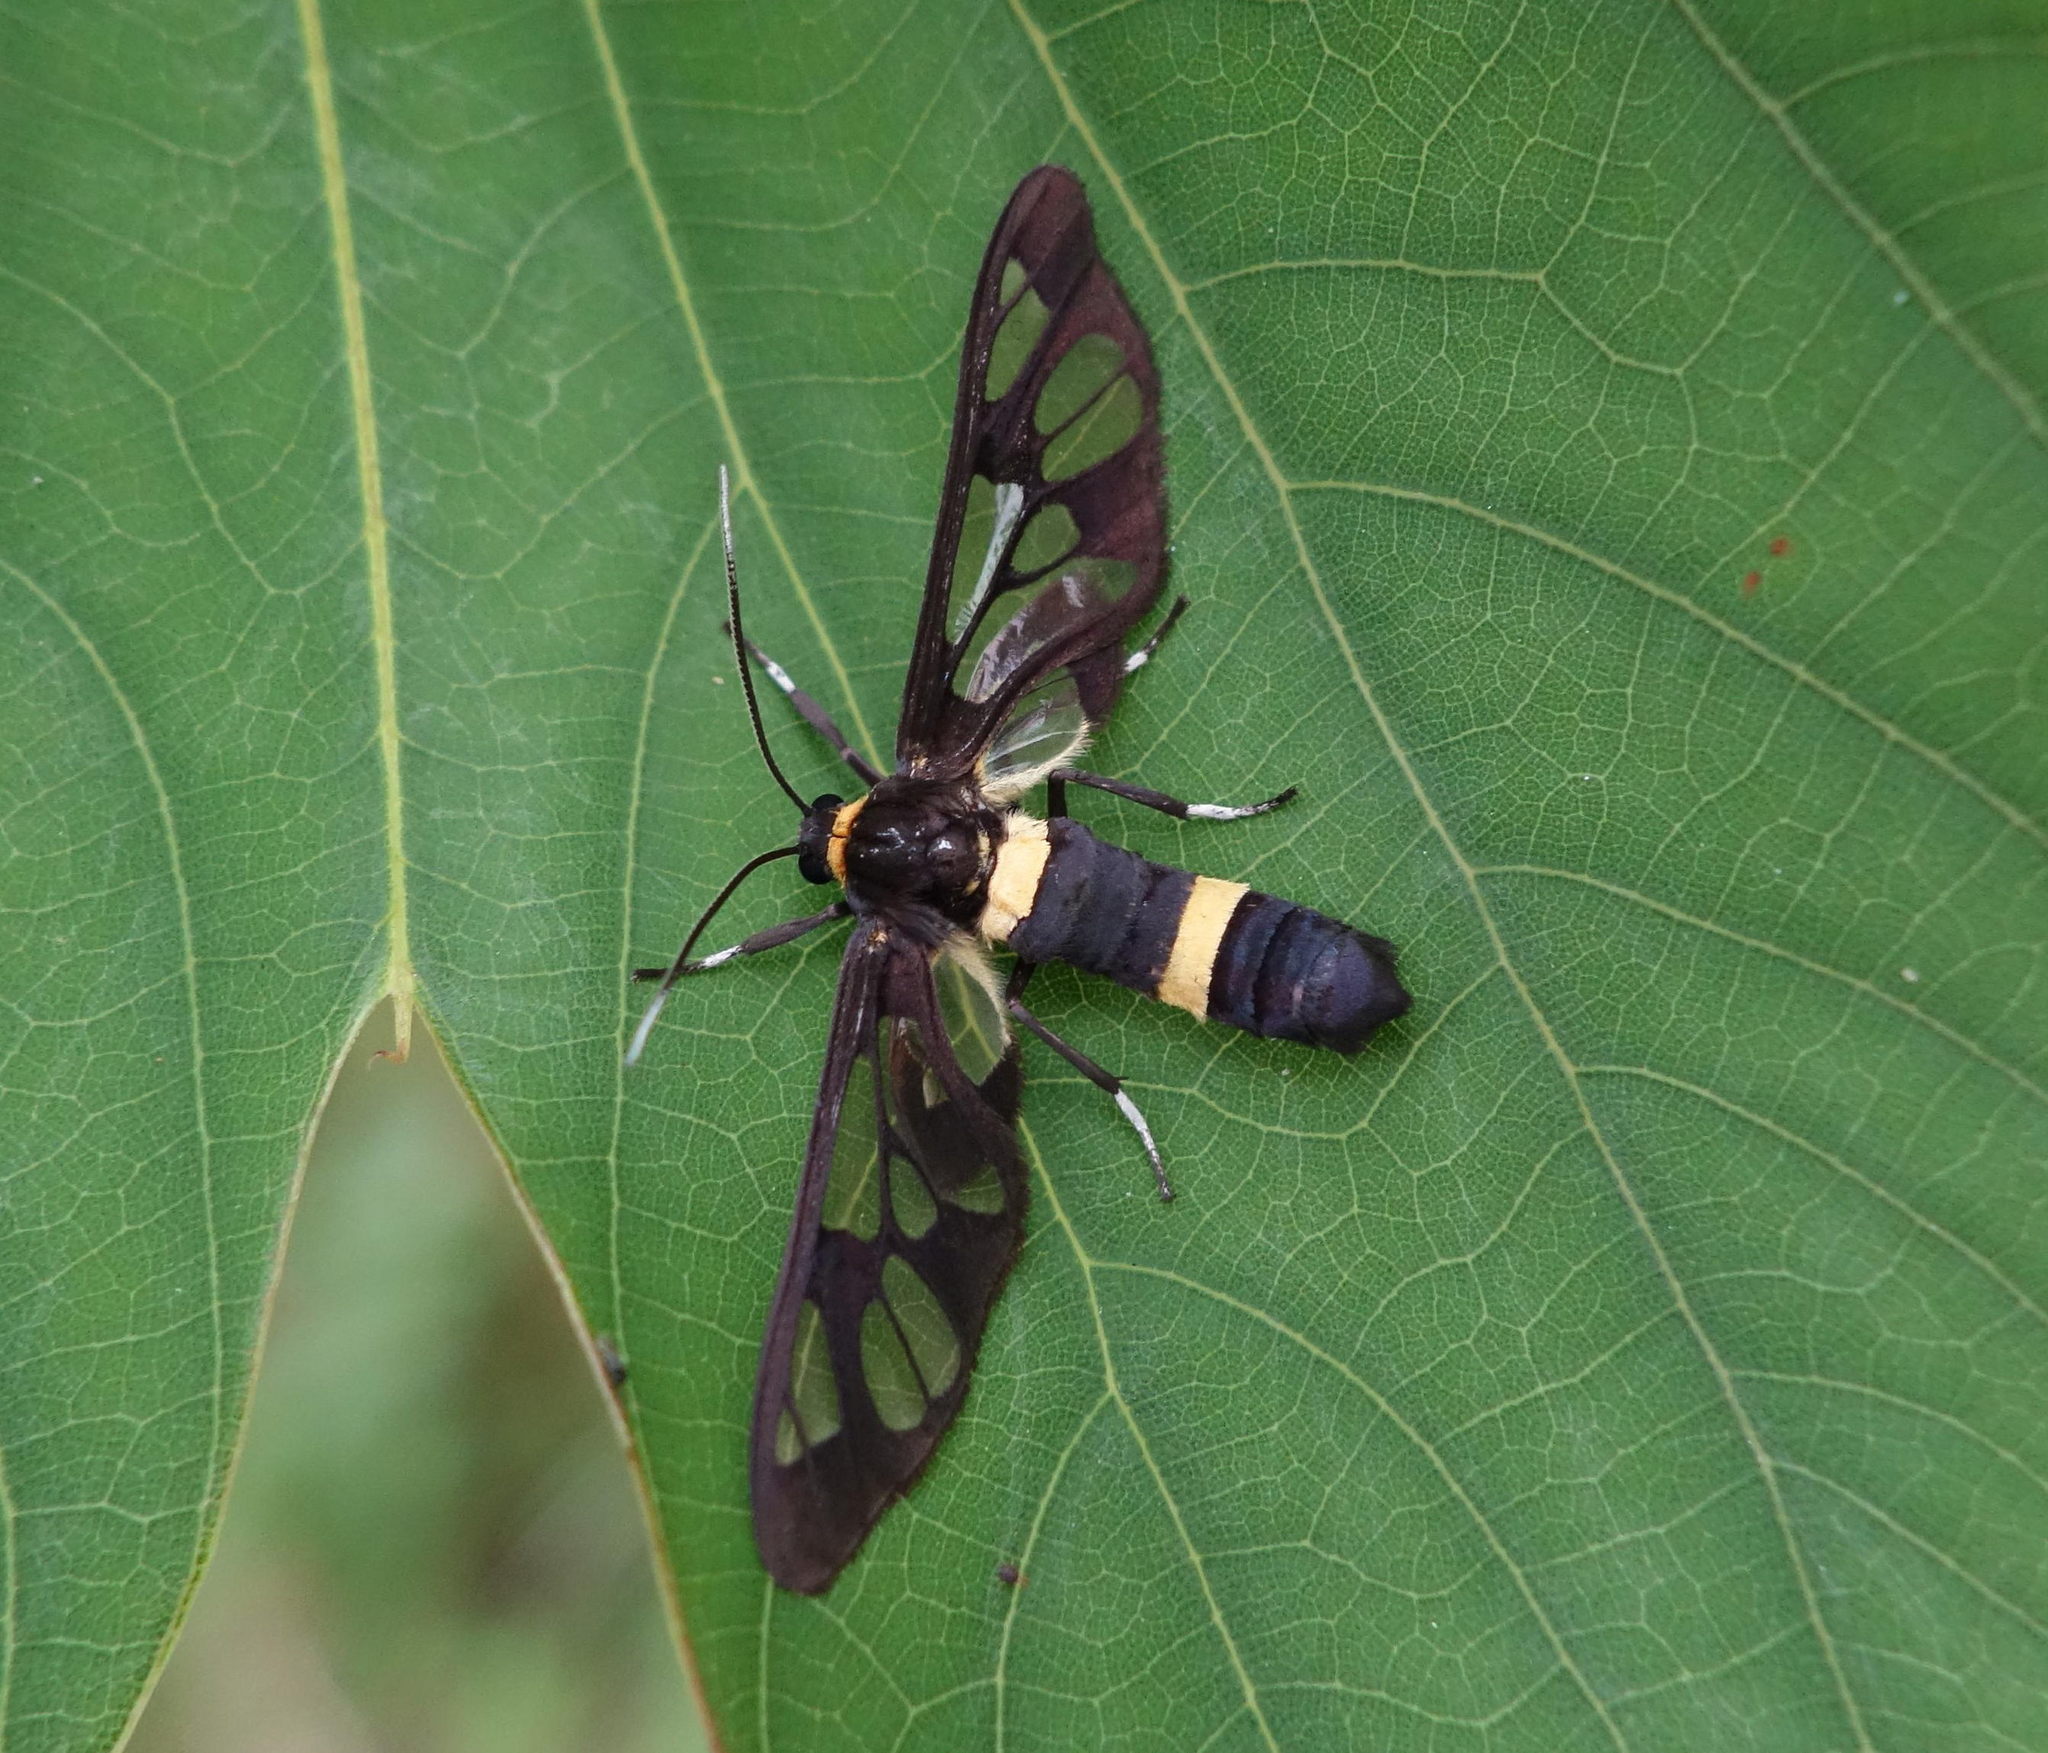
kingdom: Animalia
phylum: Arthropoda
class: Insecta
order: Lepidoptera
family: Erebidae
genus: Syntomoides
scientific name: Syntomoides imaon
